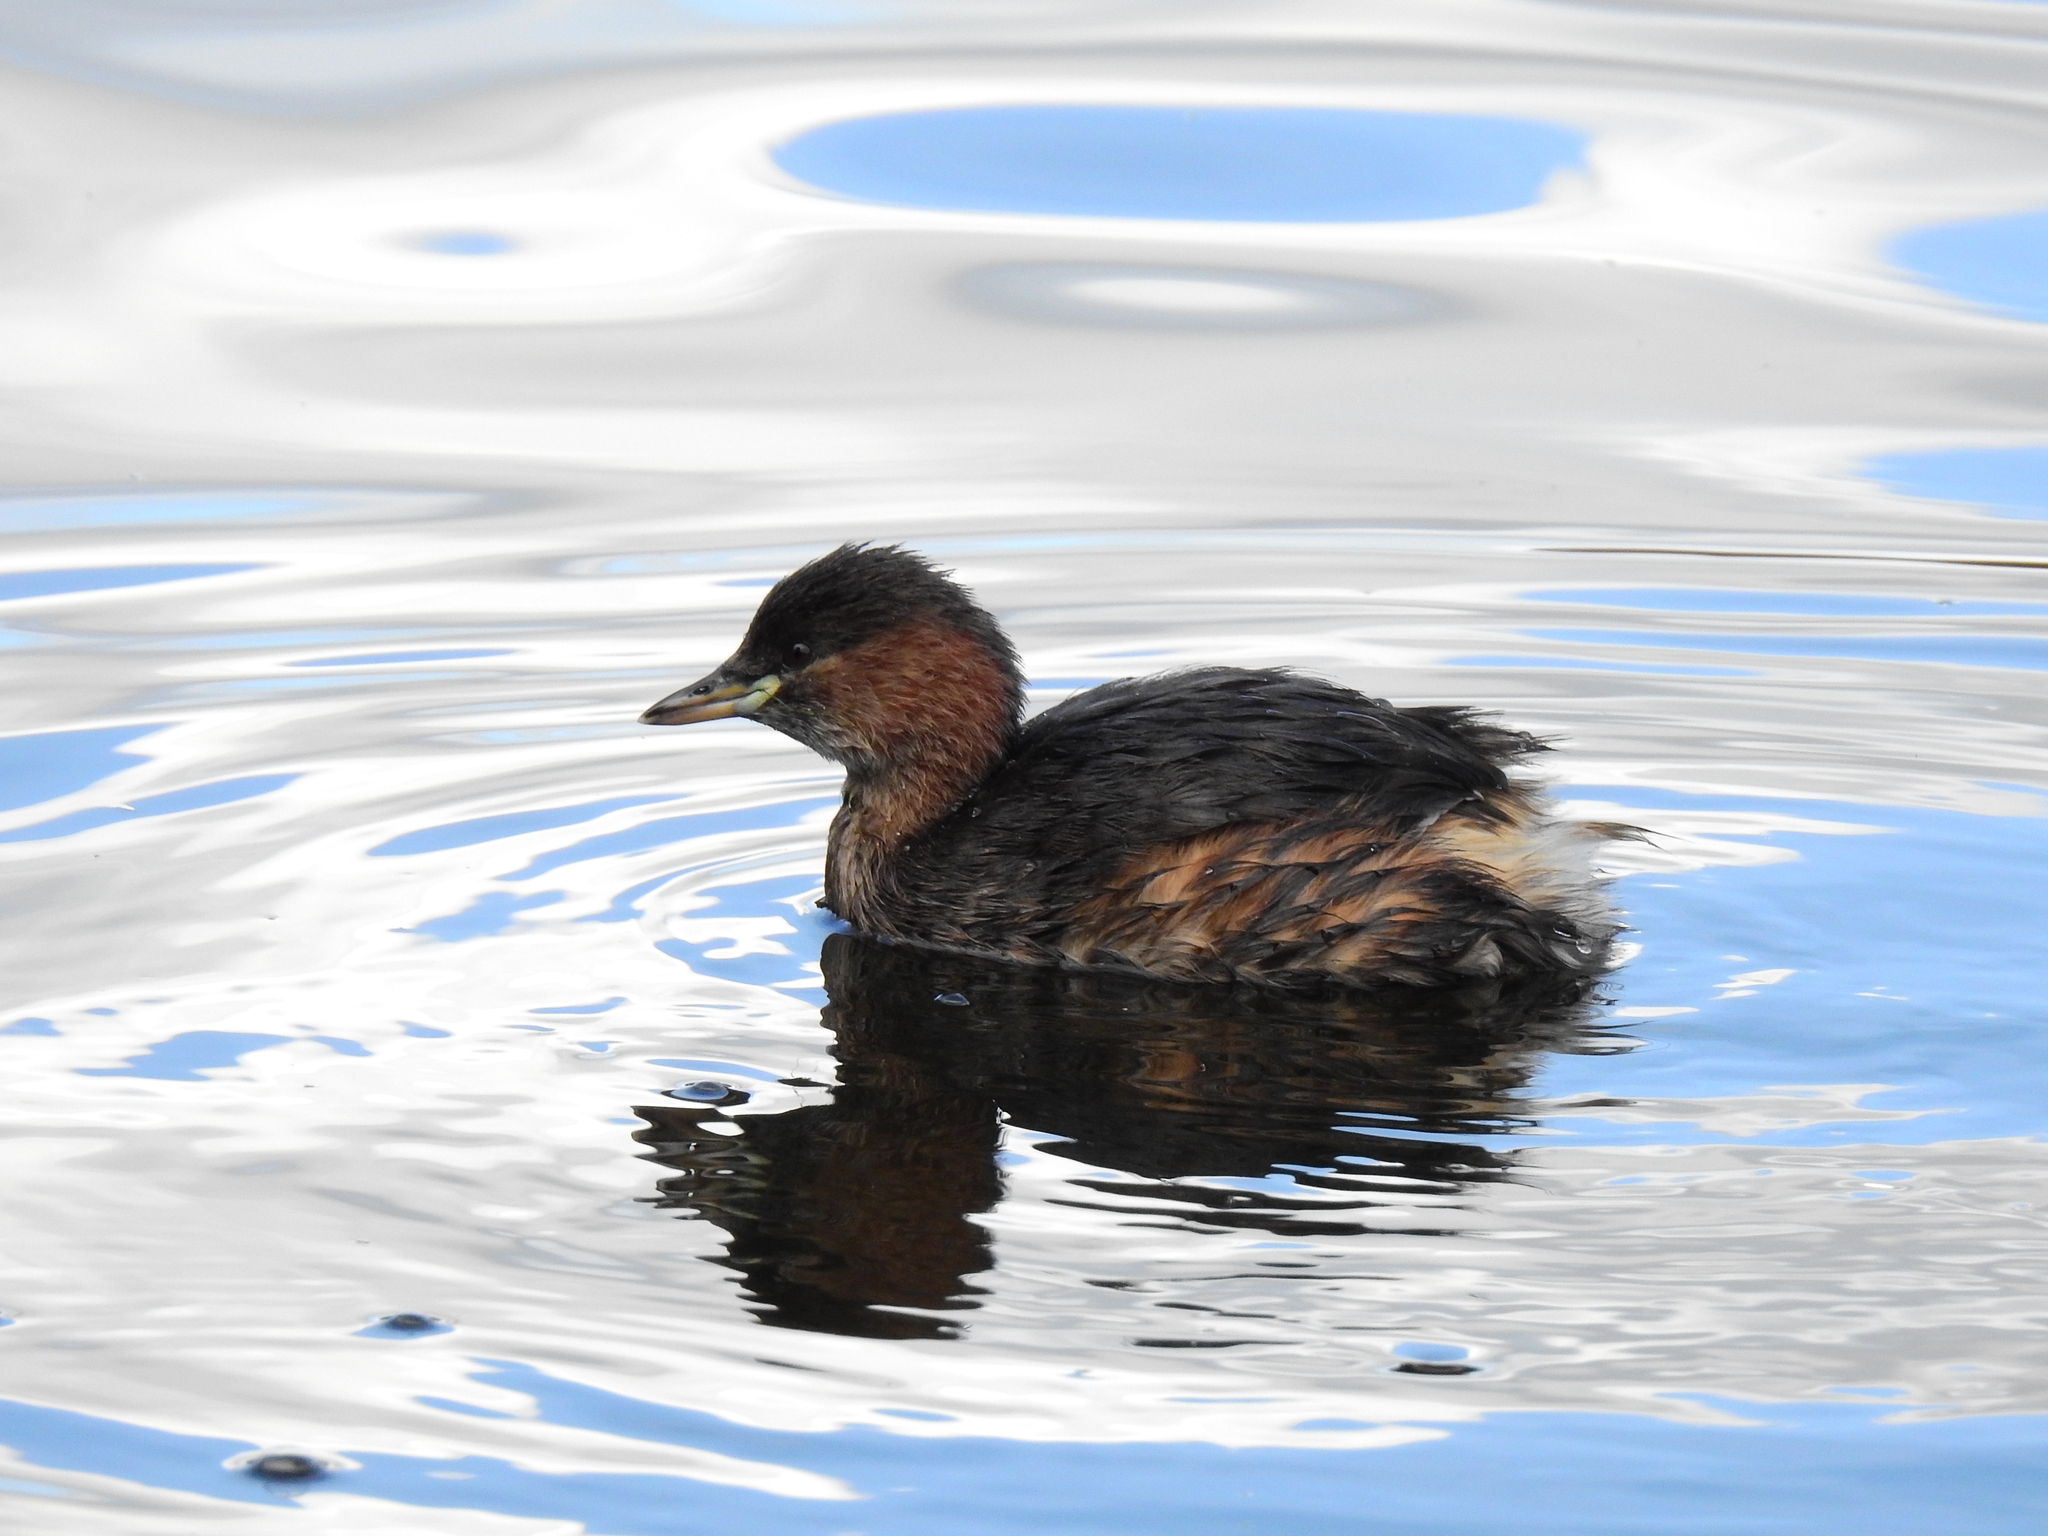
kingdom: Animalia
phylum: Chordata
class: Aves
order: Podicipediformes
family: Podicipedidae
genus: Tachybaptus
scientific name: Tachybaptus ruficollis
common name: Little grebe
